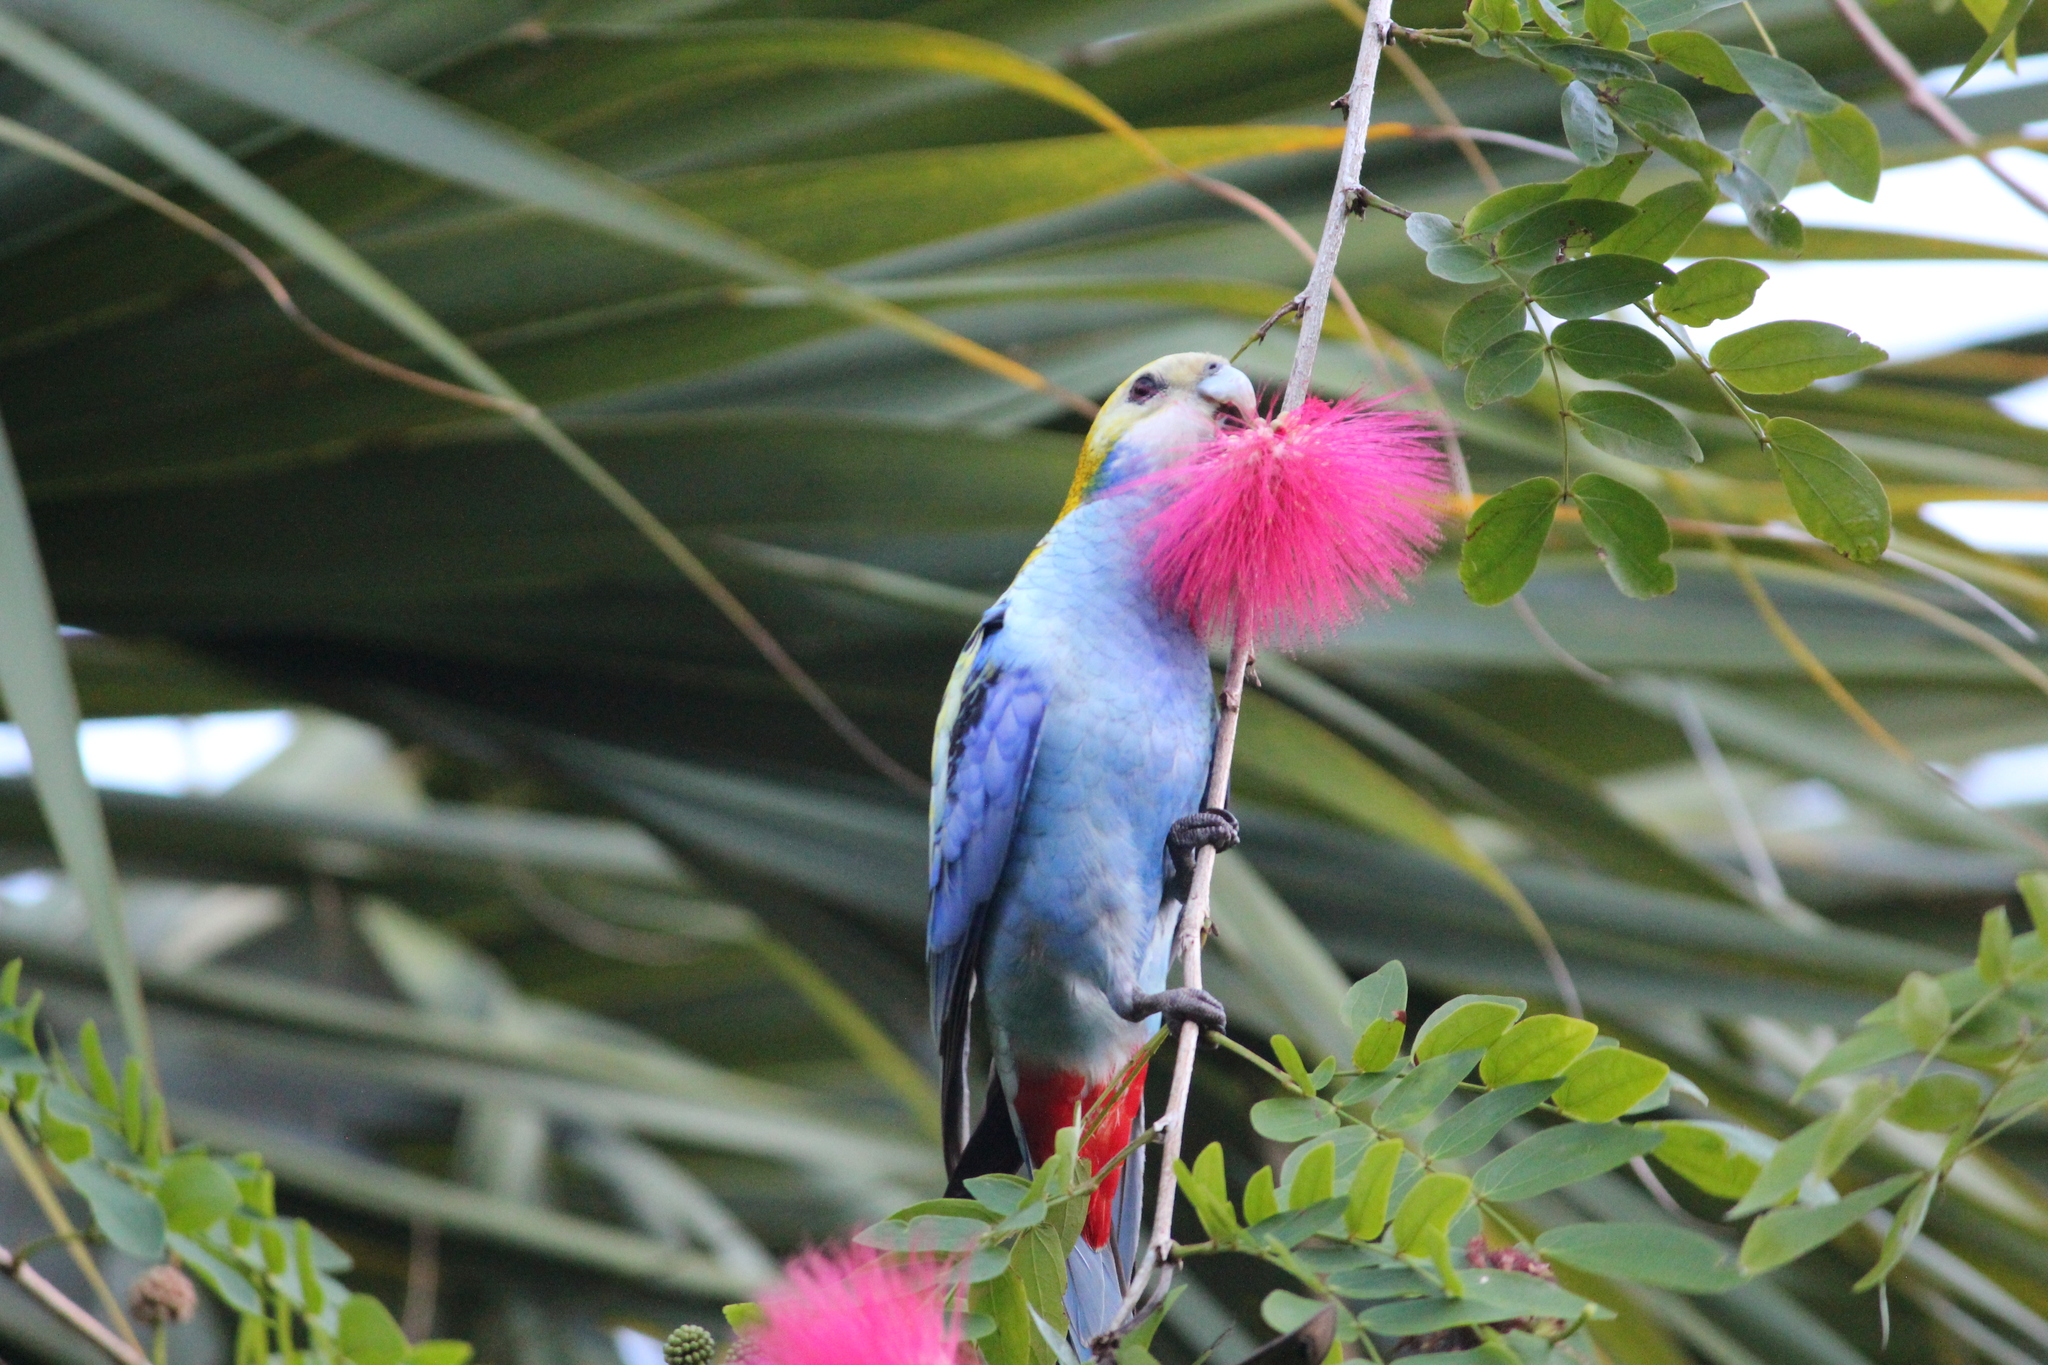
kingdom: Animalia
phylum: Chordata
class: Aves
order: Psittaciformes
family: Psittacidae
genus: Platycercus
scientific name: Platycercus adscitus
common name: Pale-headed rosella
